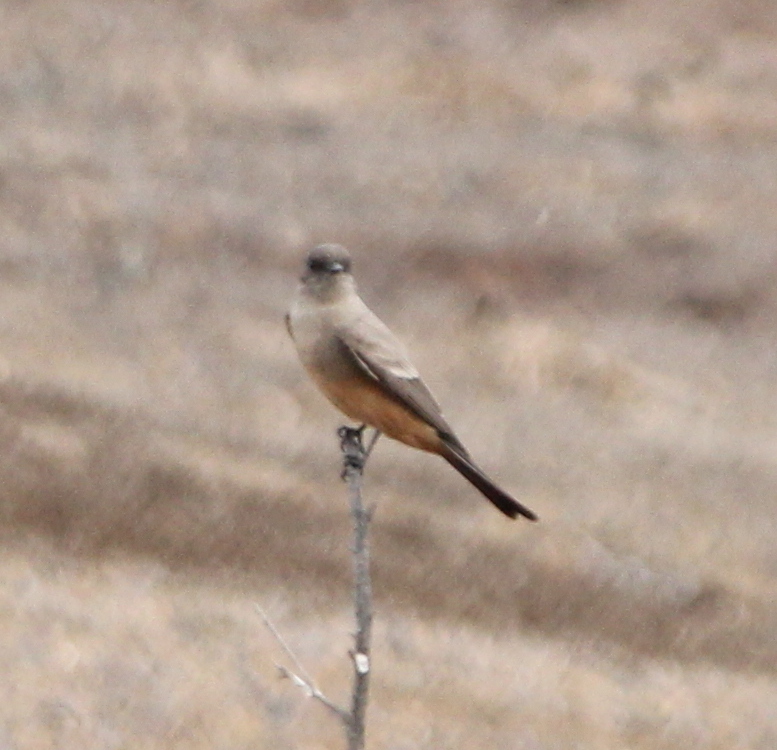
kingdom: Animalia
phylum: Chordata
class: Aves
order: Passeriformes
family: Tyrannidae
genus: Sayornis
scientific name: Sayornis saya
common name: Say's phoebe
